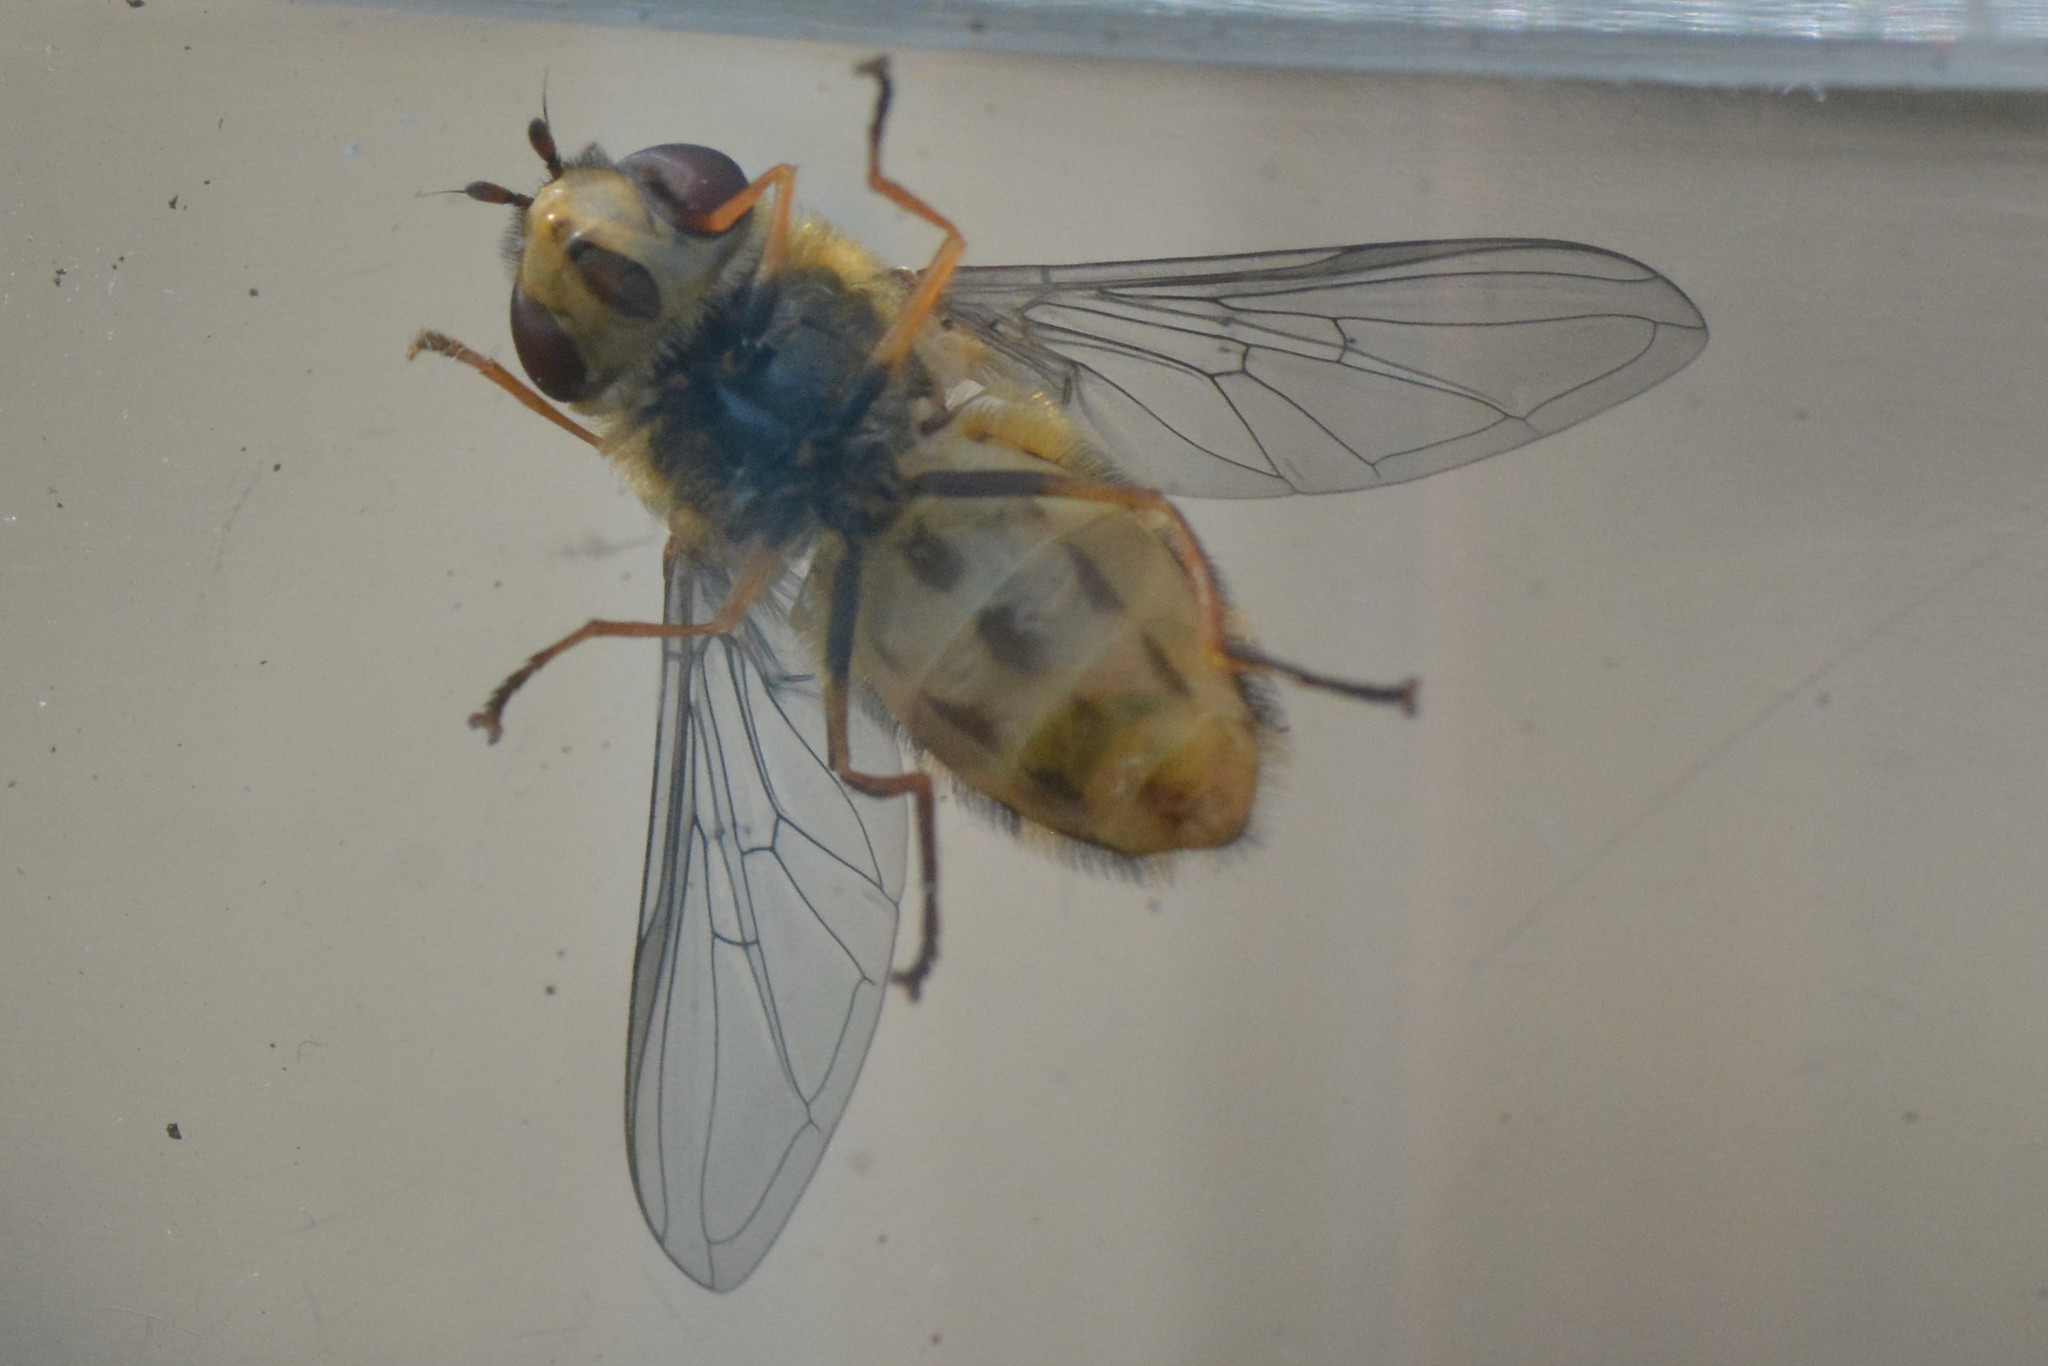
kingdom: Animalia
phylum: Arthropoda
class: Insecta
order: Diptera
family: Syrphidae
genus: Syrphus
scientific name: Syrphus ribesii
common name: Common flower fly
